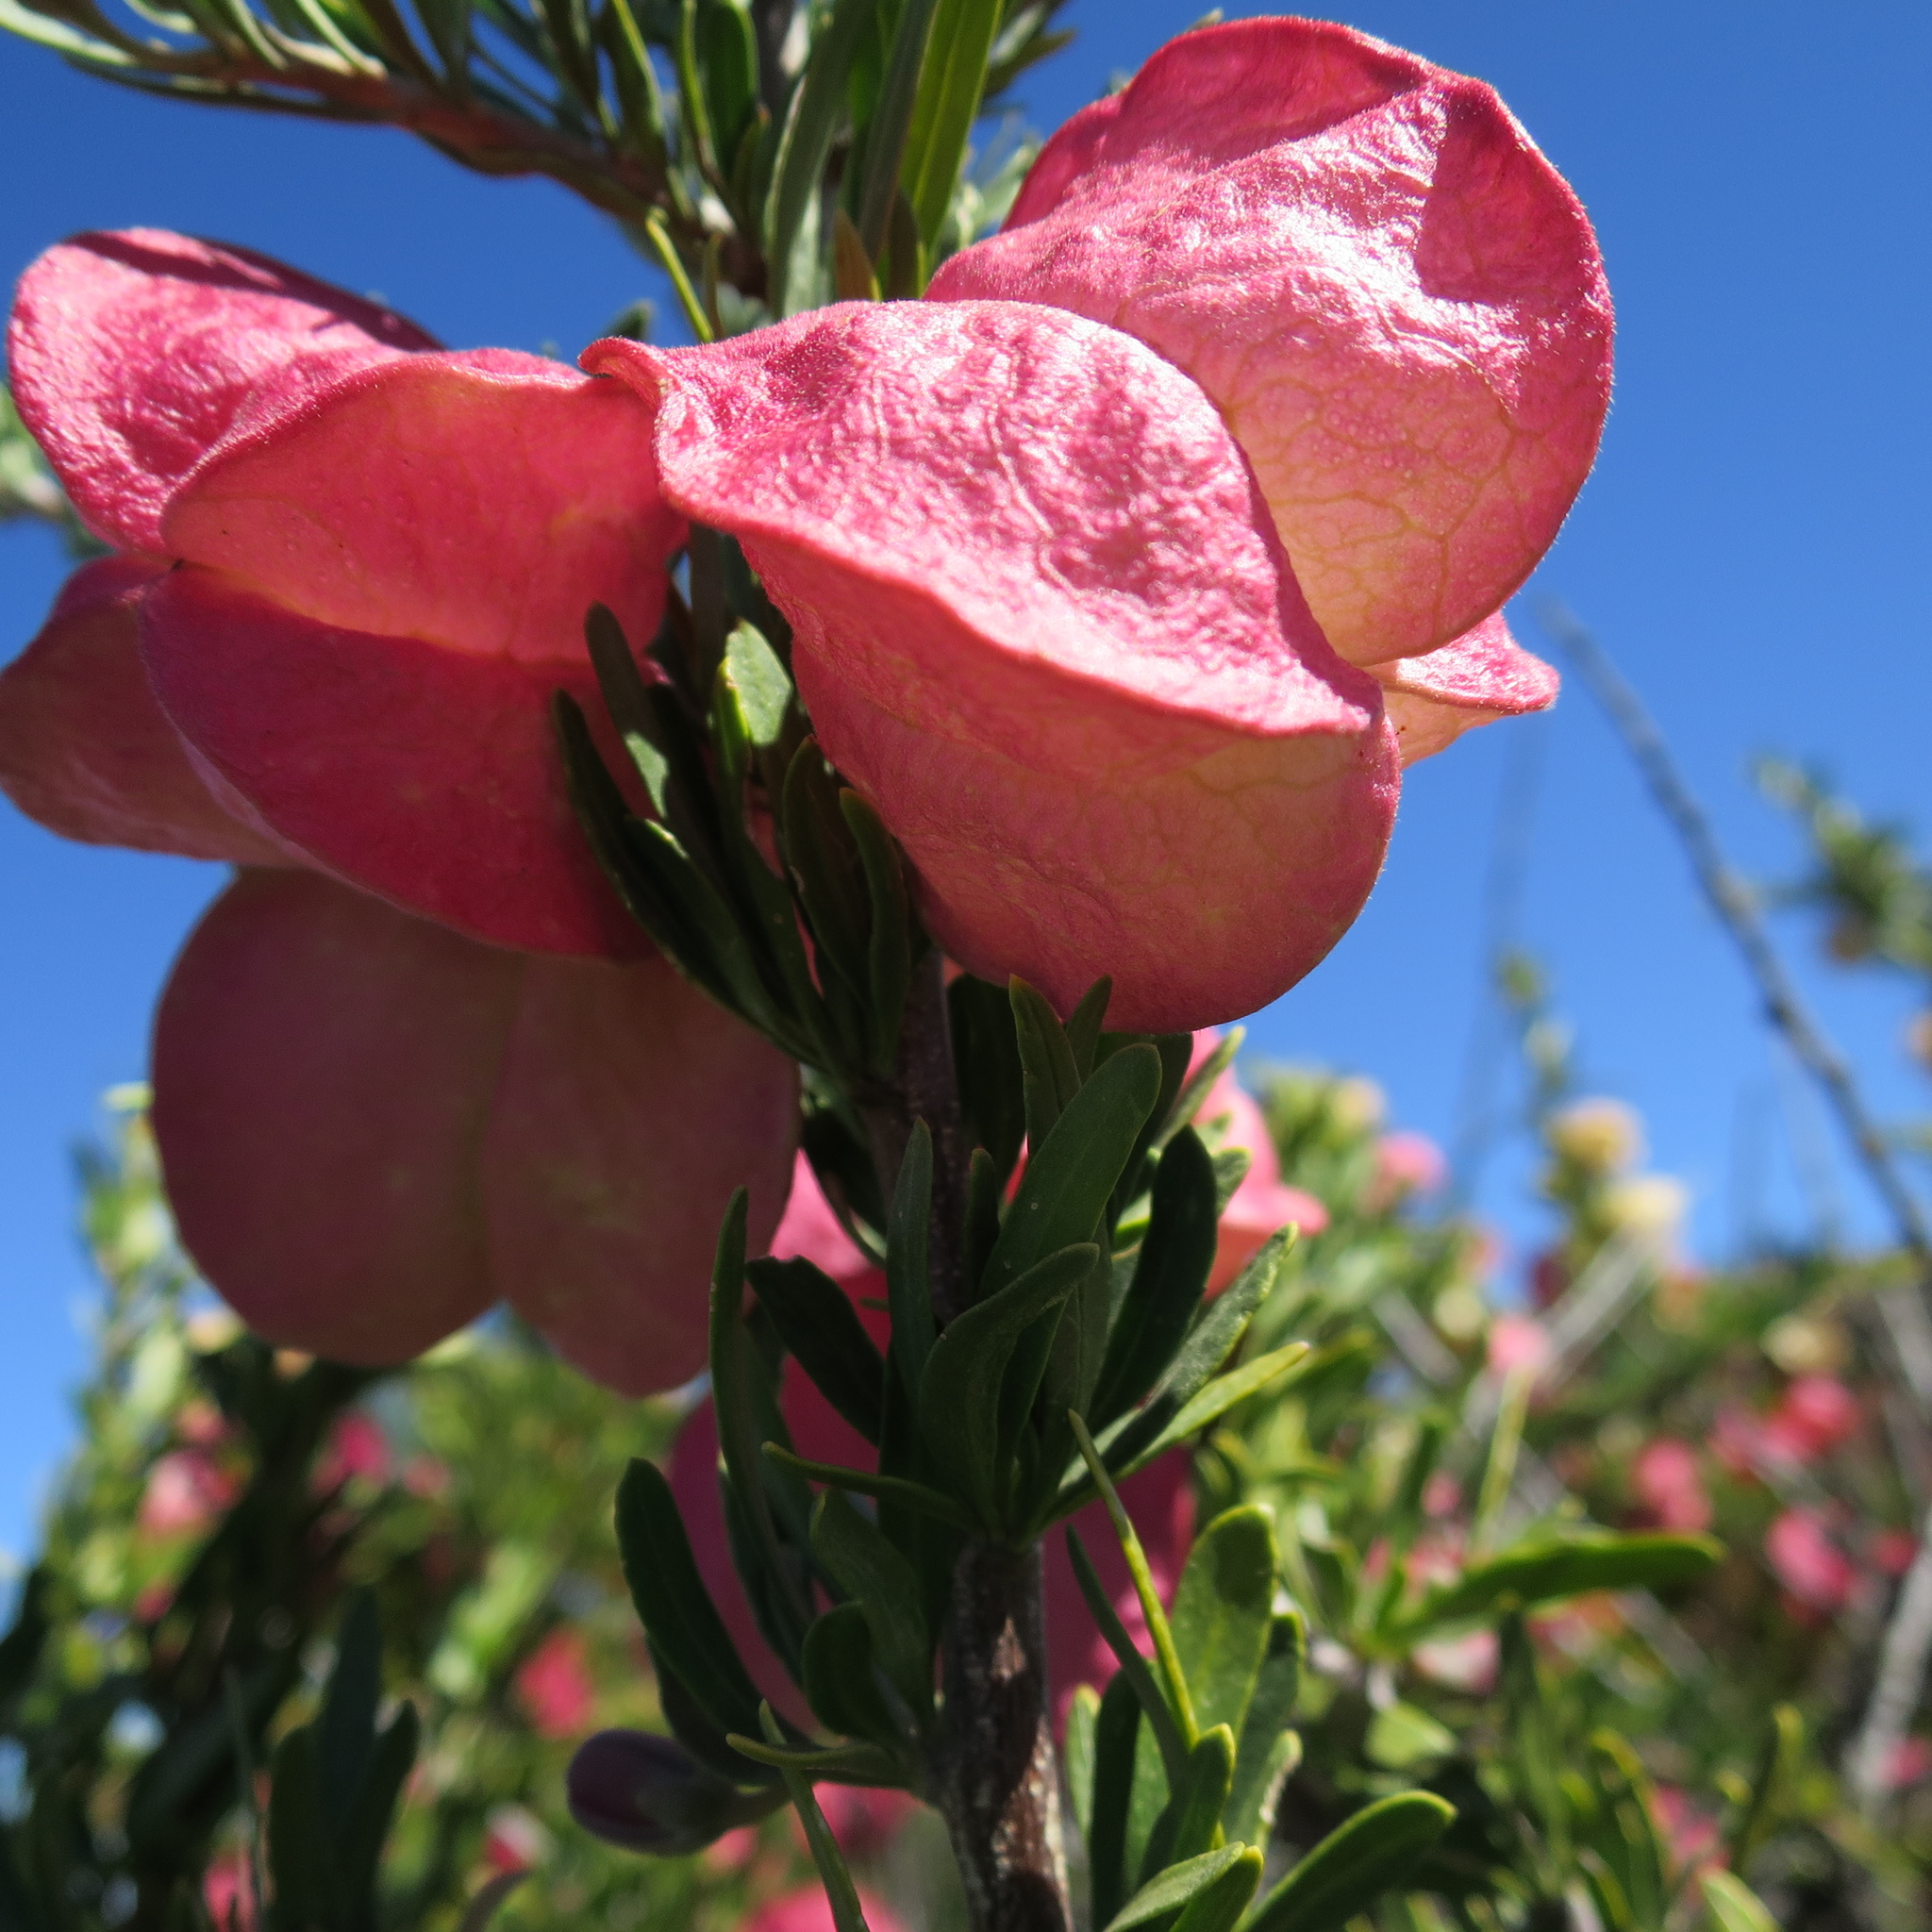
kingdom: Plantae
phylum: Tracheophyta
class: Magnoliopsida
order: Sapindales
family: Meliaceae
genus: Nymania
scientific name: Nymania capensis
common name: Chinese lantern tree
